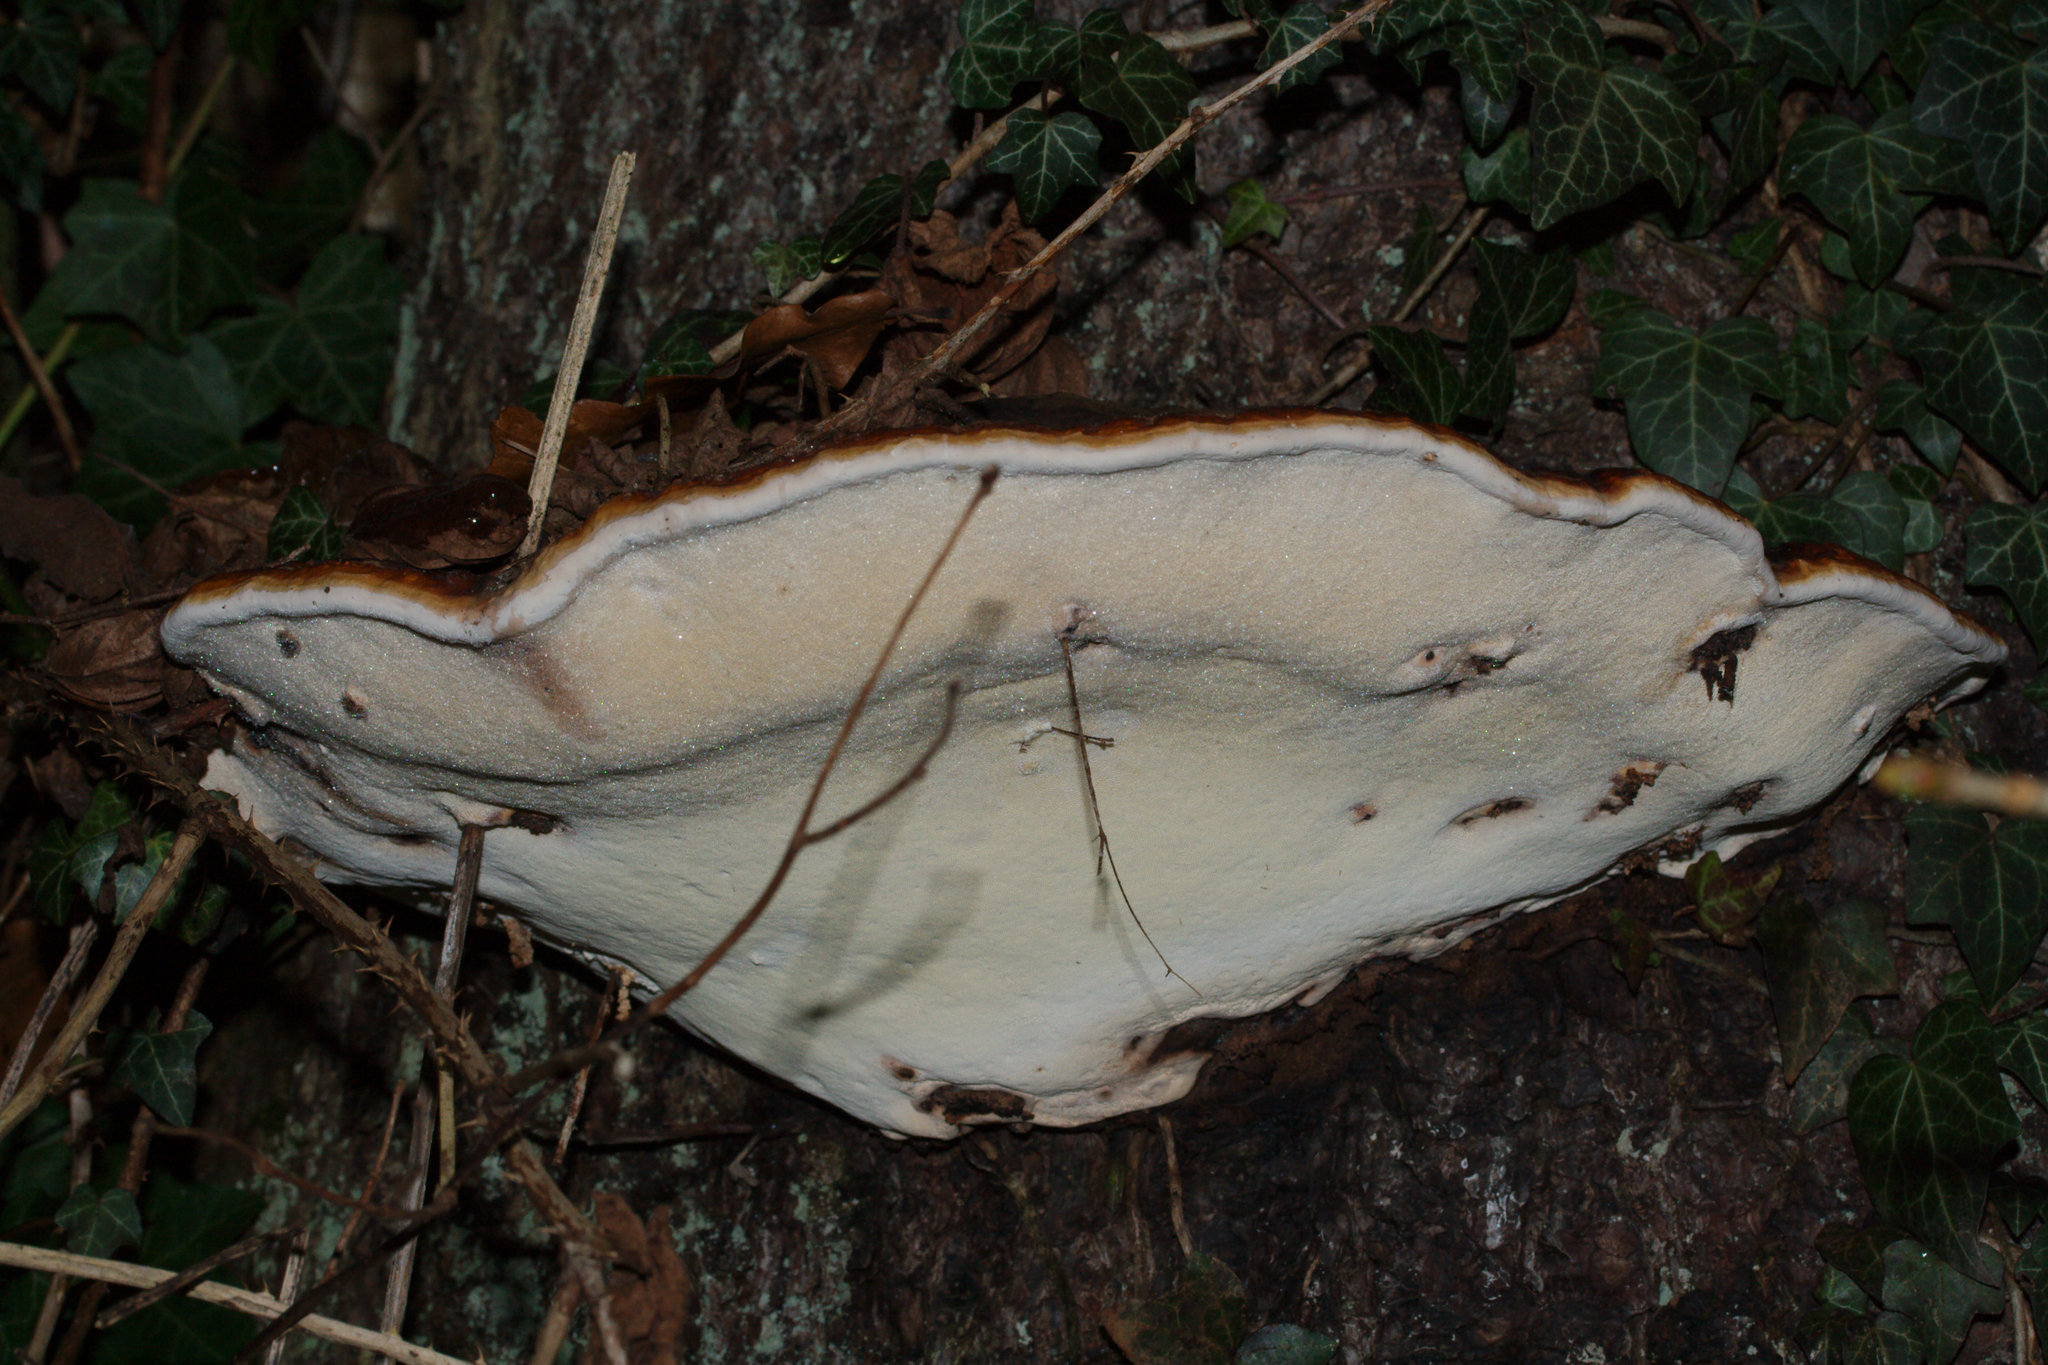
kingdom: Fungi
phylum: Basidiomycota
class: Agaricomycetes
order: Polyporales
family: Fomitopsidaceae
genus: Fomitopsis
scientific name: Fomitopsis pinicola
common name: Red-belted bracket
